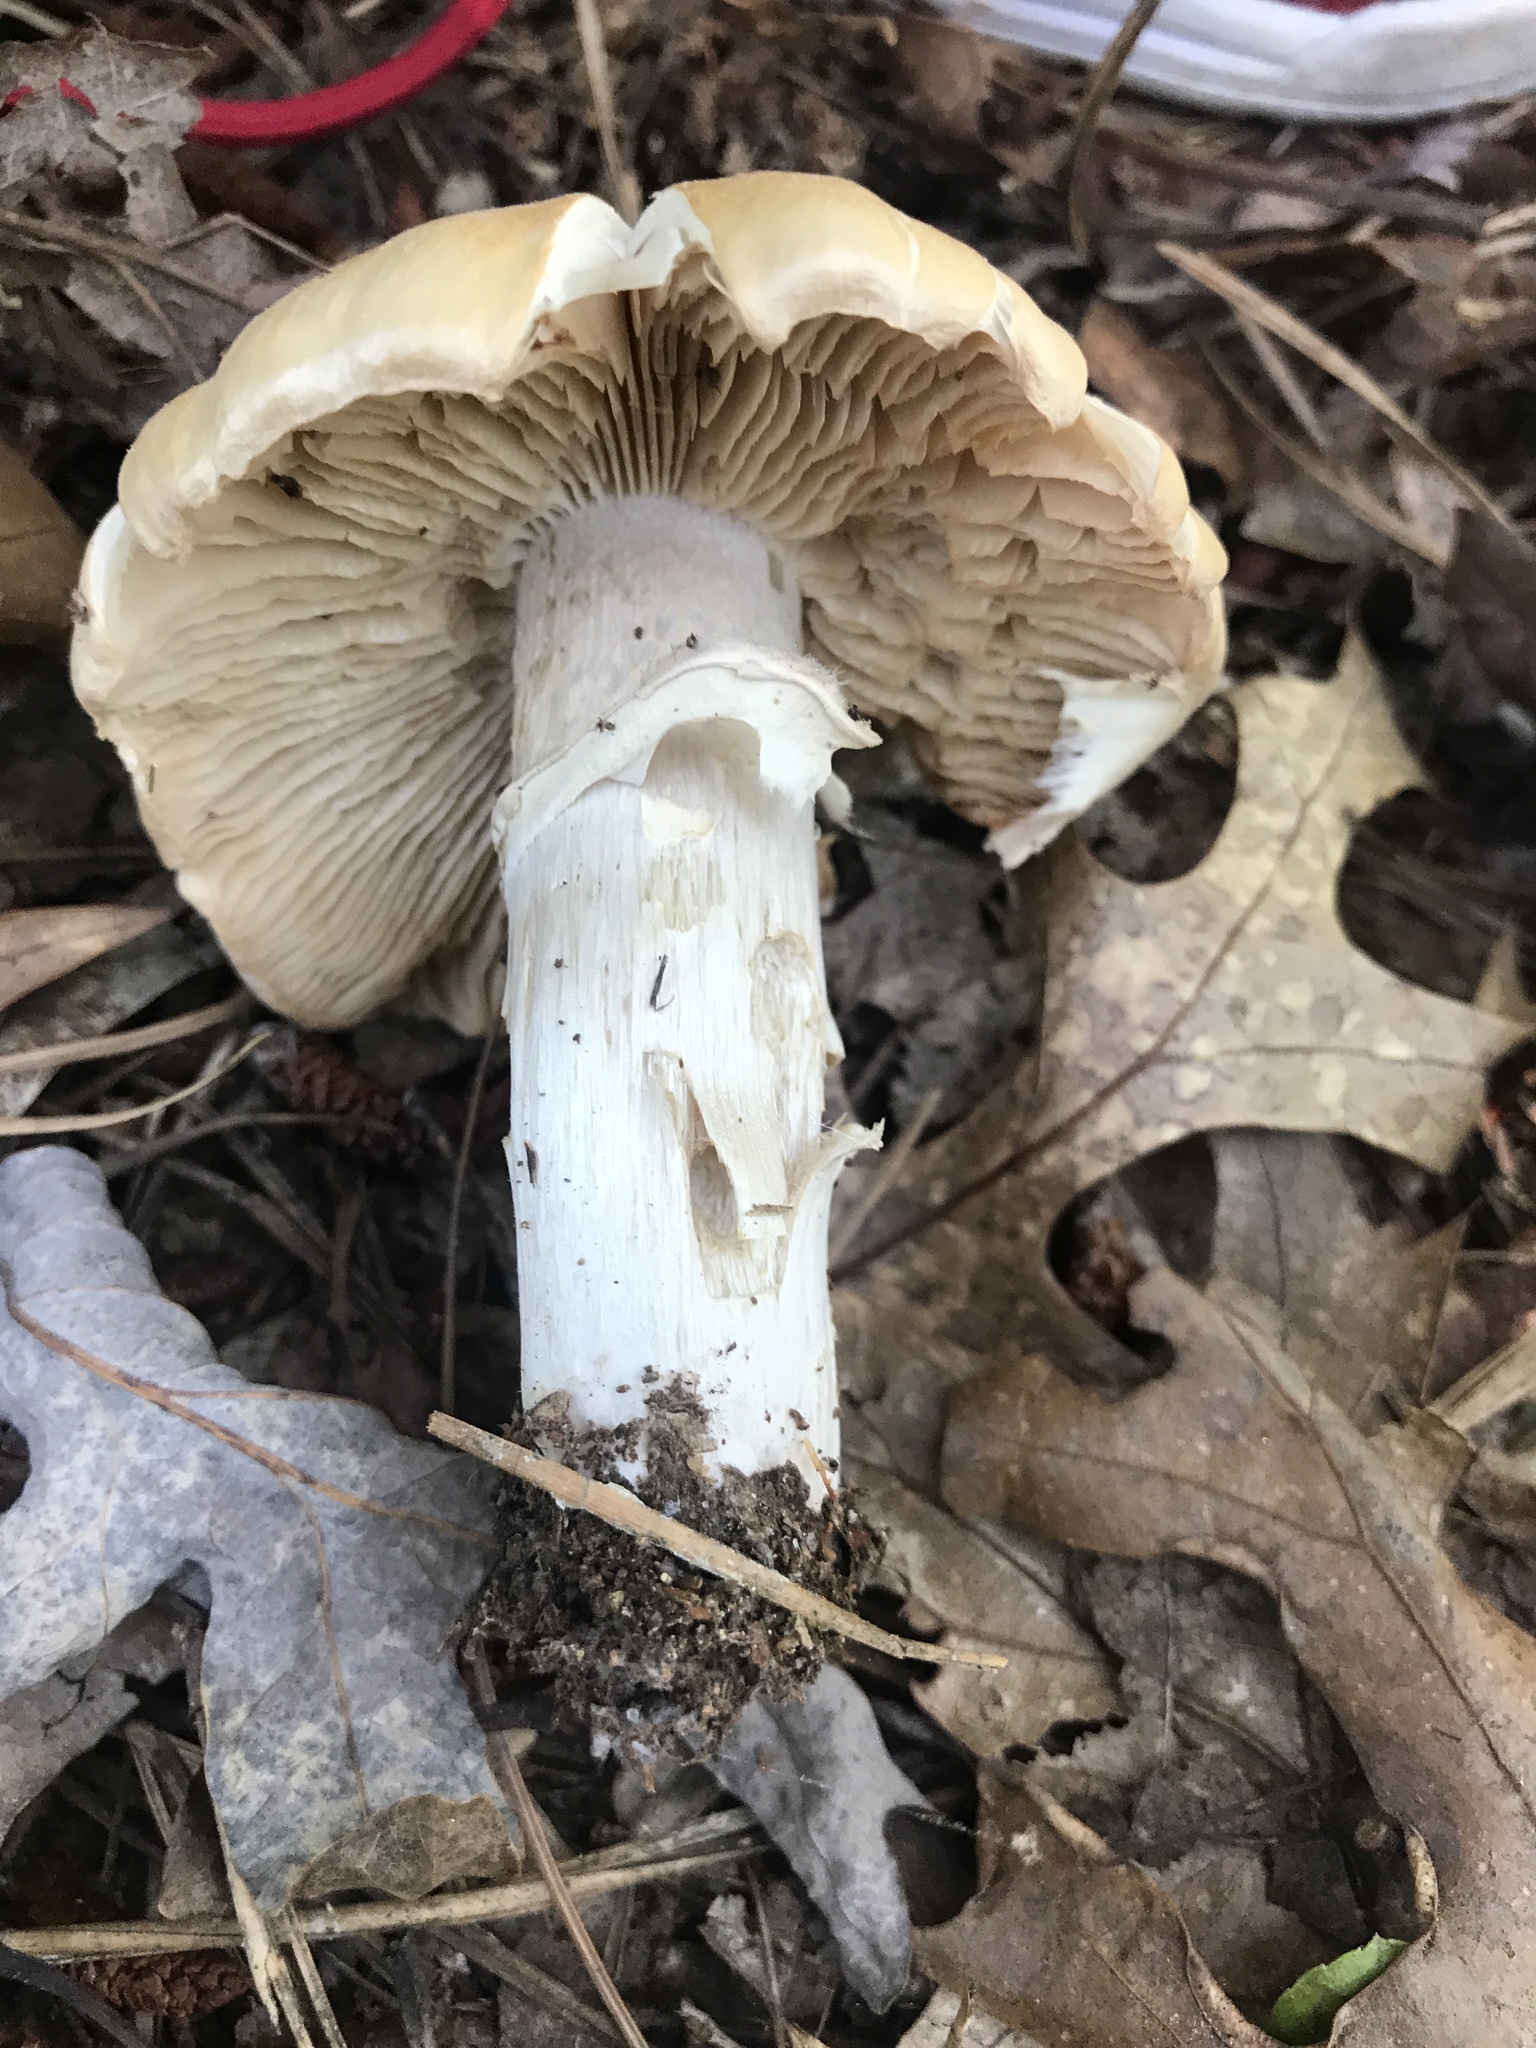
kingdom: Fungi
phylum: Basidiomycota
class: Agaricomycetes
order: Agaricales
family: Cortinariaceae
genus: Cortinarius
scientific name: Cortinarius caperatus
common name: The gypsy
